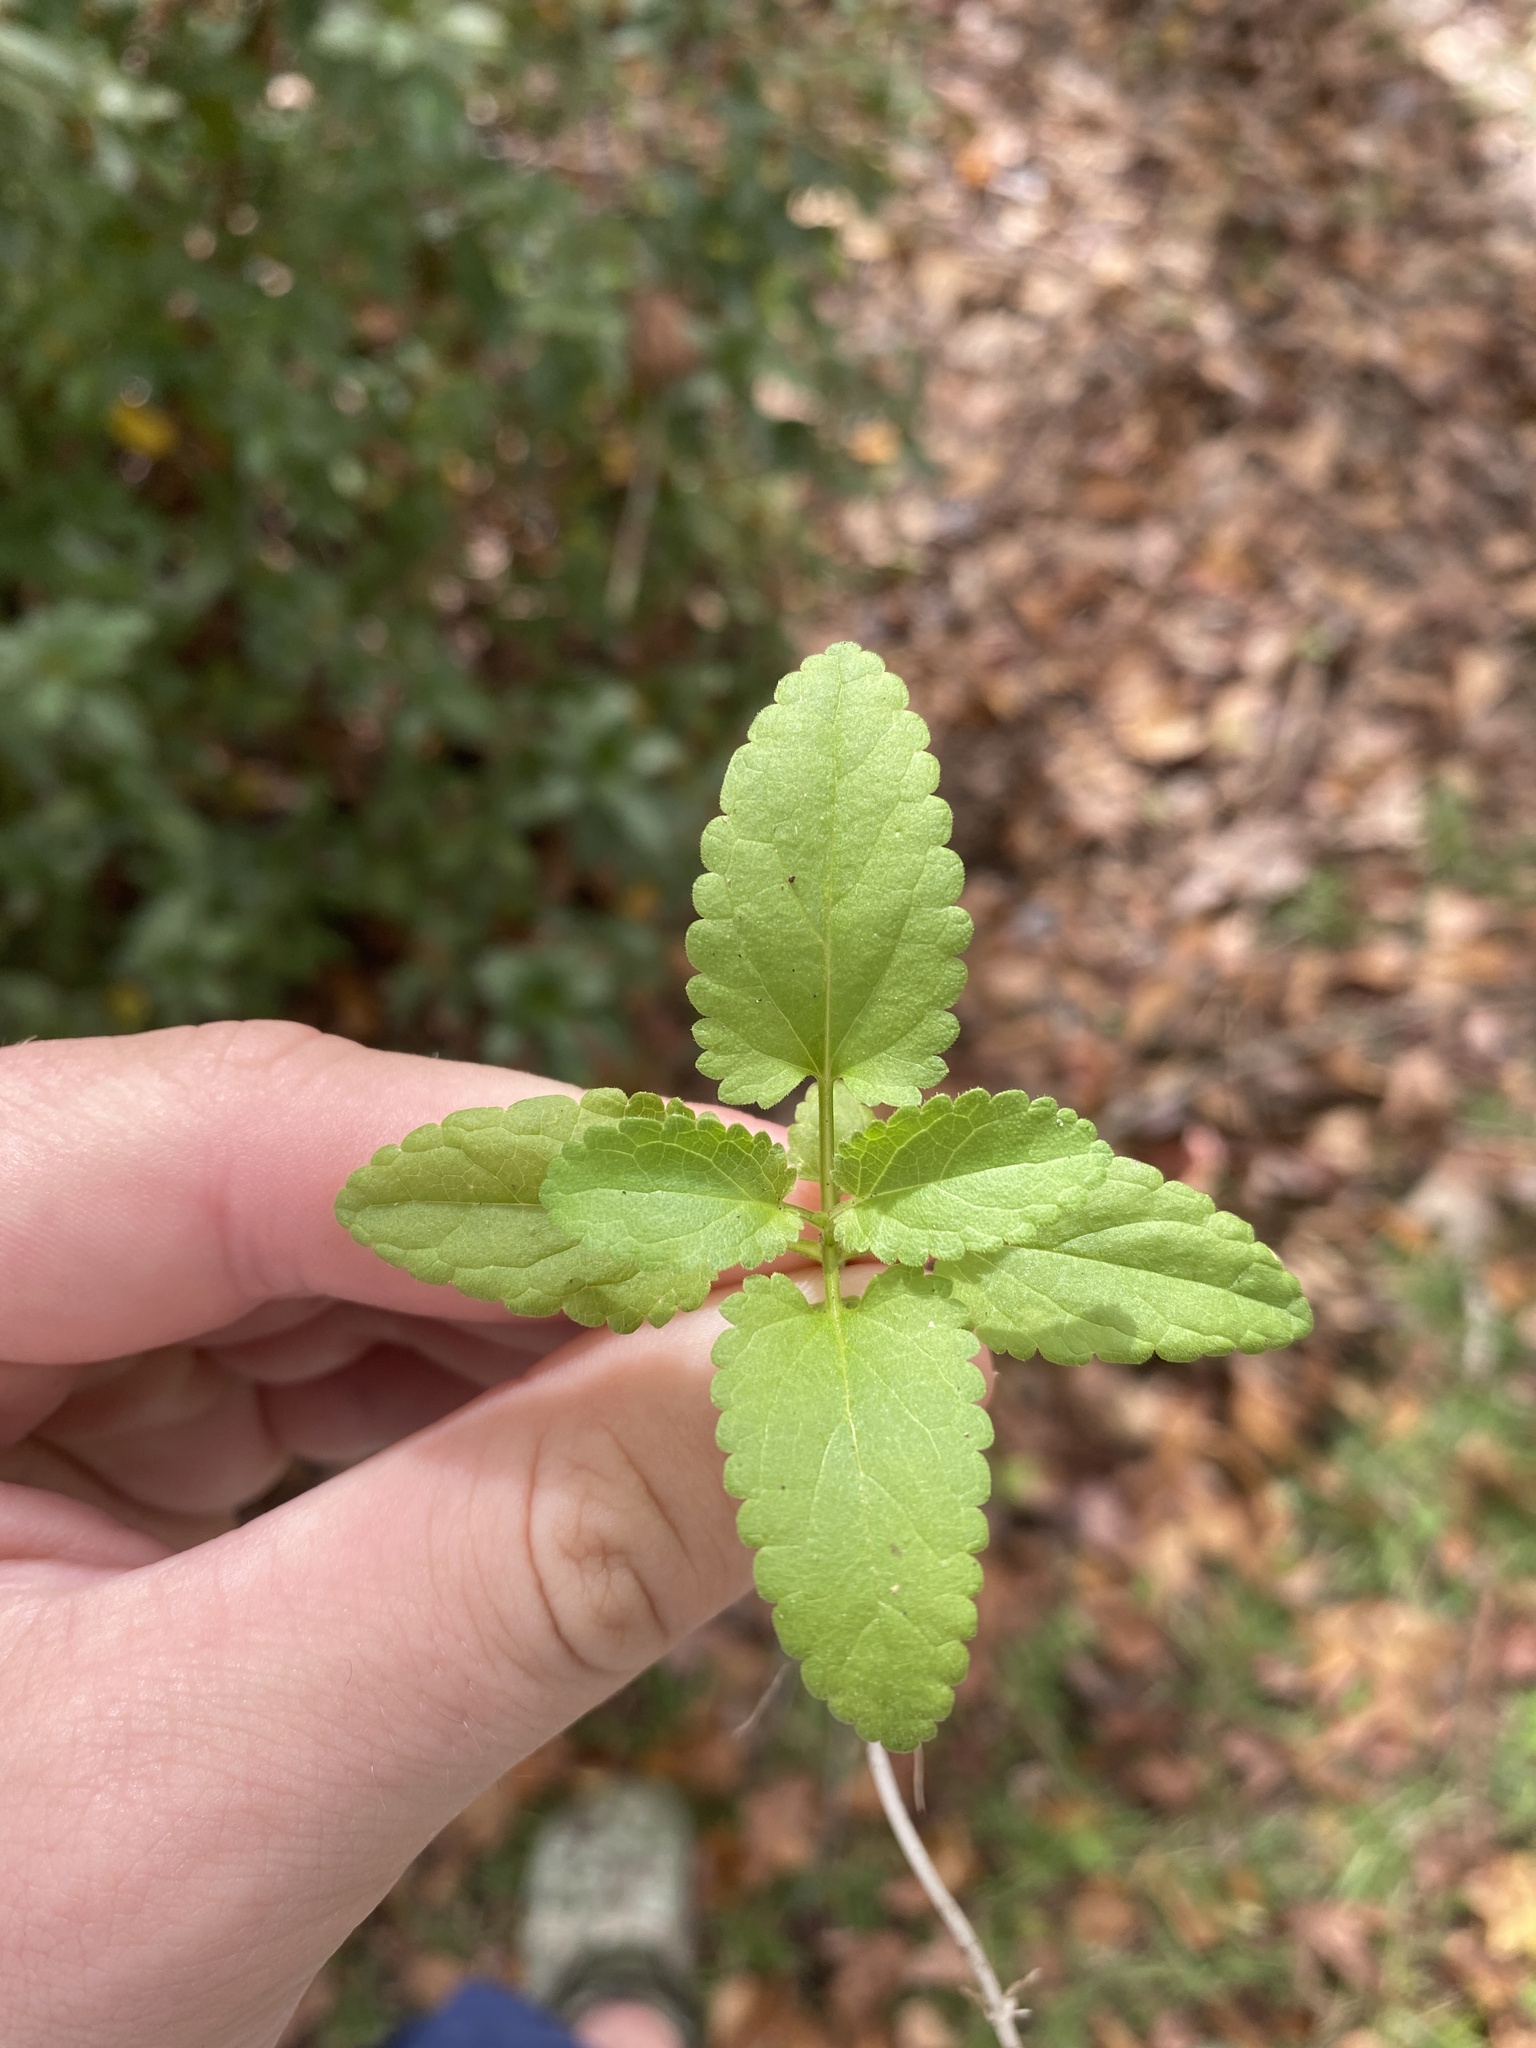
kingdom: Plantae
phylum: Tracheophyta
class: Magnoliopsida
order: Lamiales
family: Lamiaceae
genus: Stachys
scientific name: Stachys floridana
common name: Florida betony
